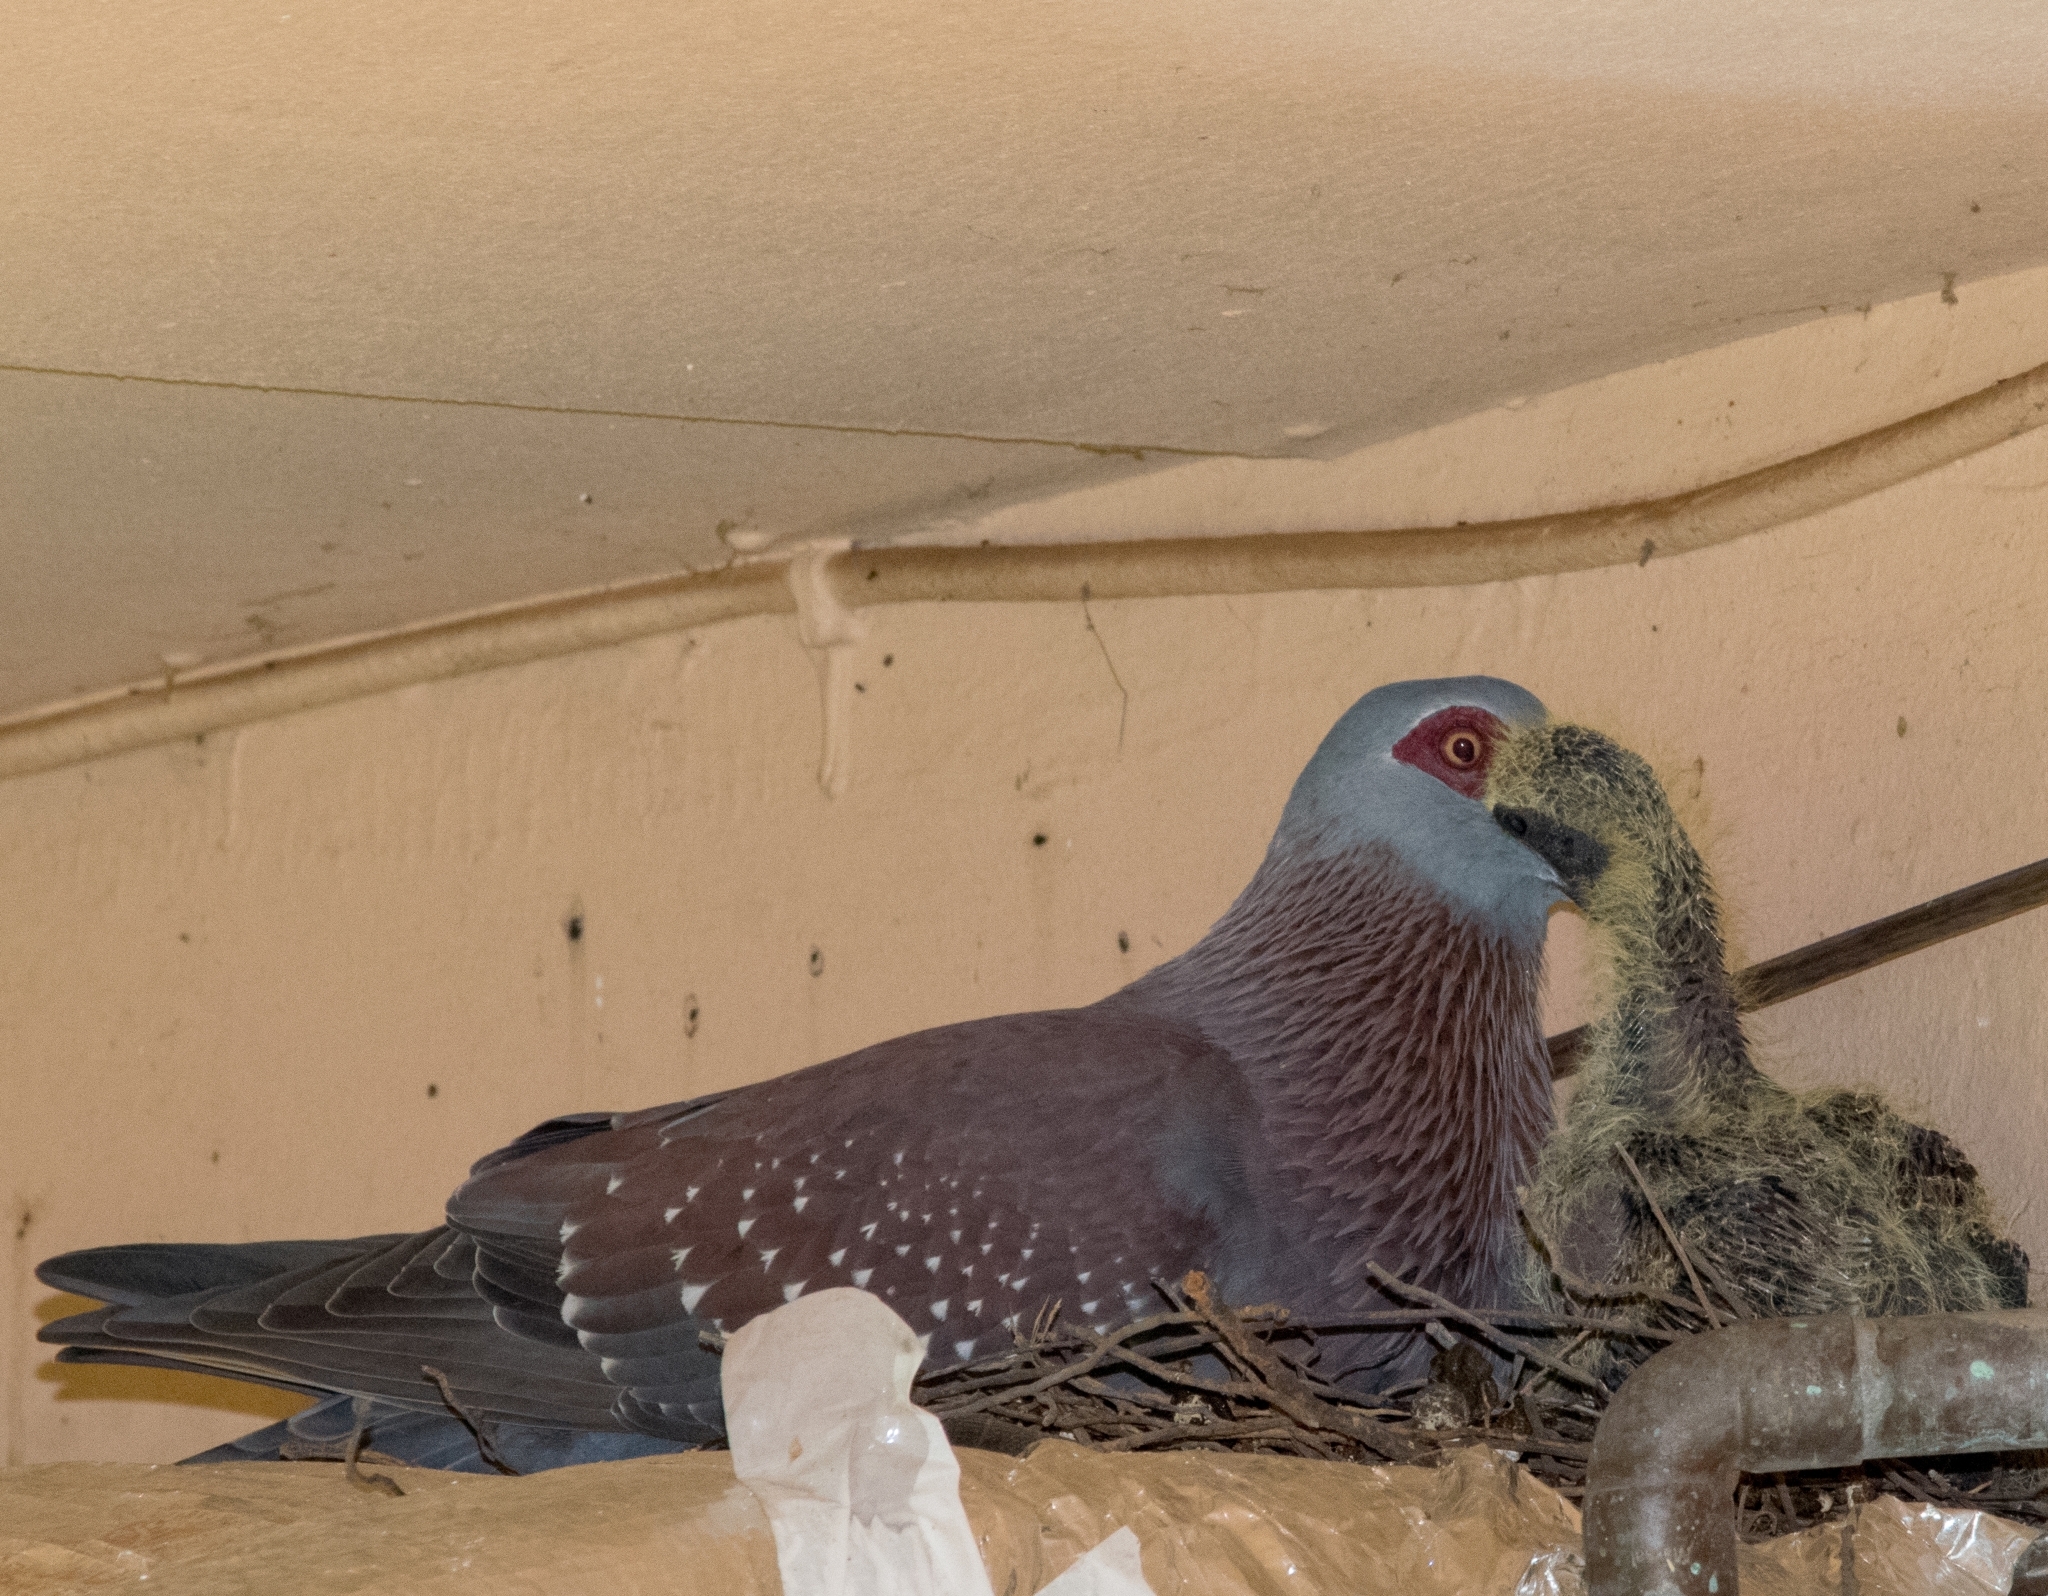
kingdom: Animalia
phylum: Chordata
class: Aves
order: Columbiformes
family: Columbidae
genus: Columba
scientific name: Columba guinea
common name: Speckled pigeon
